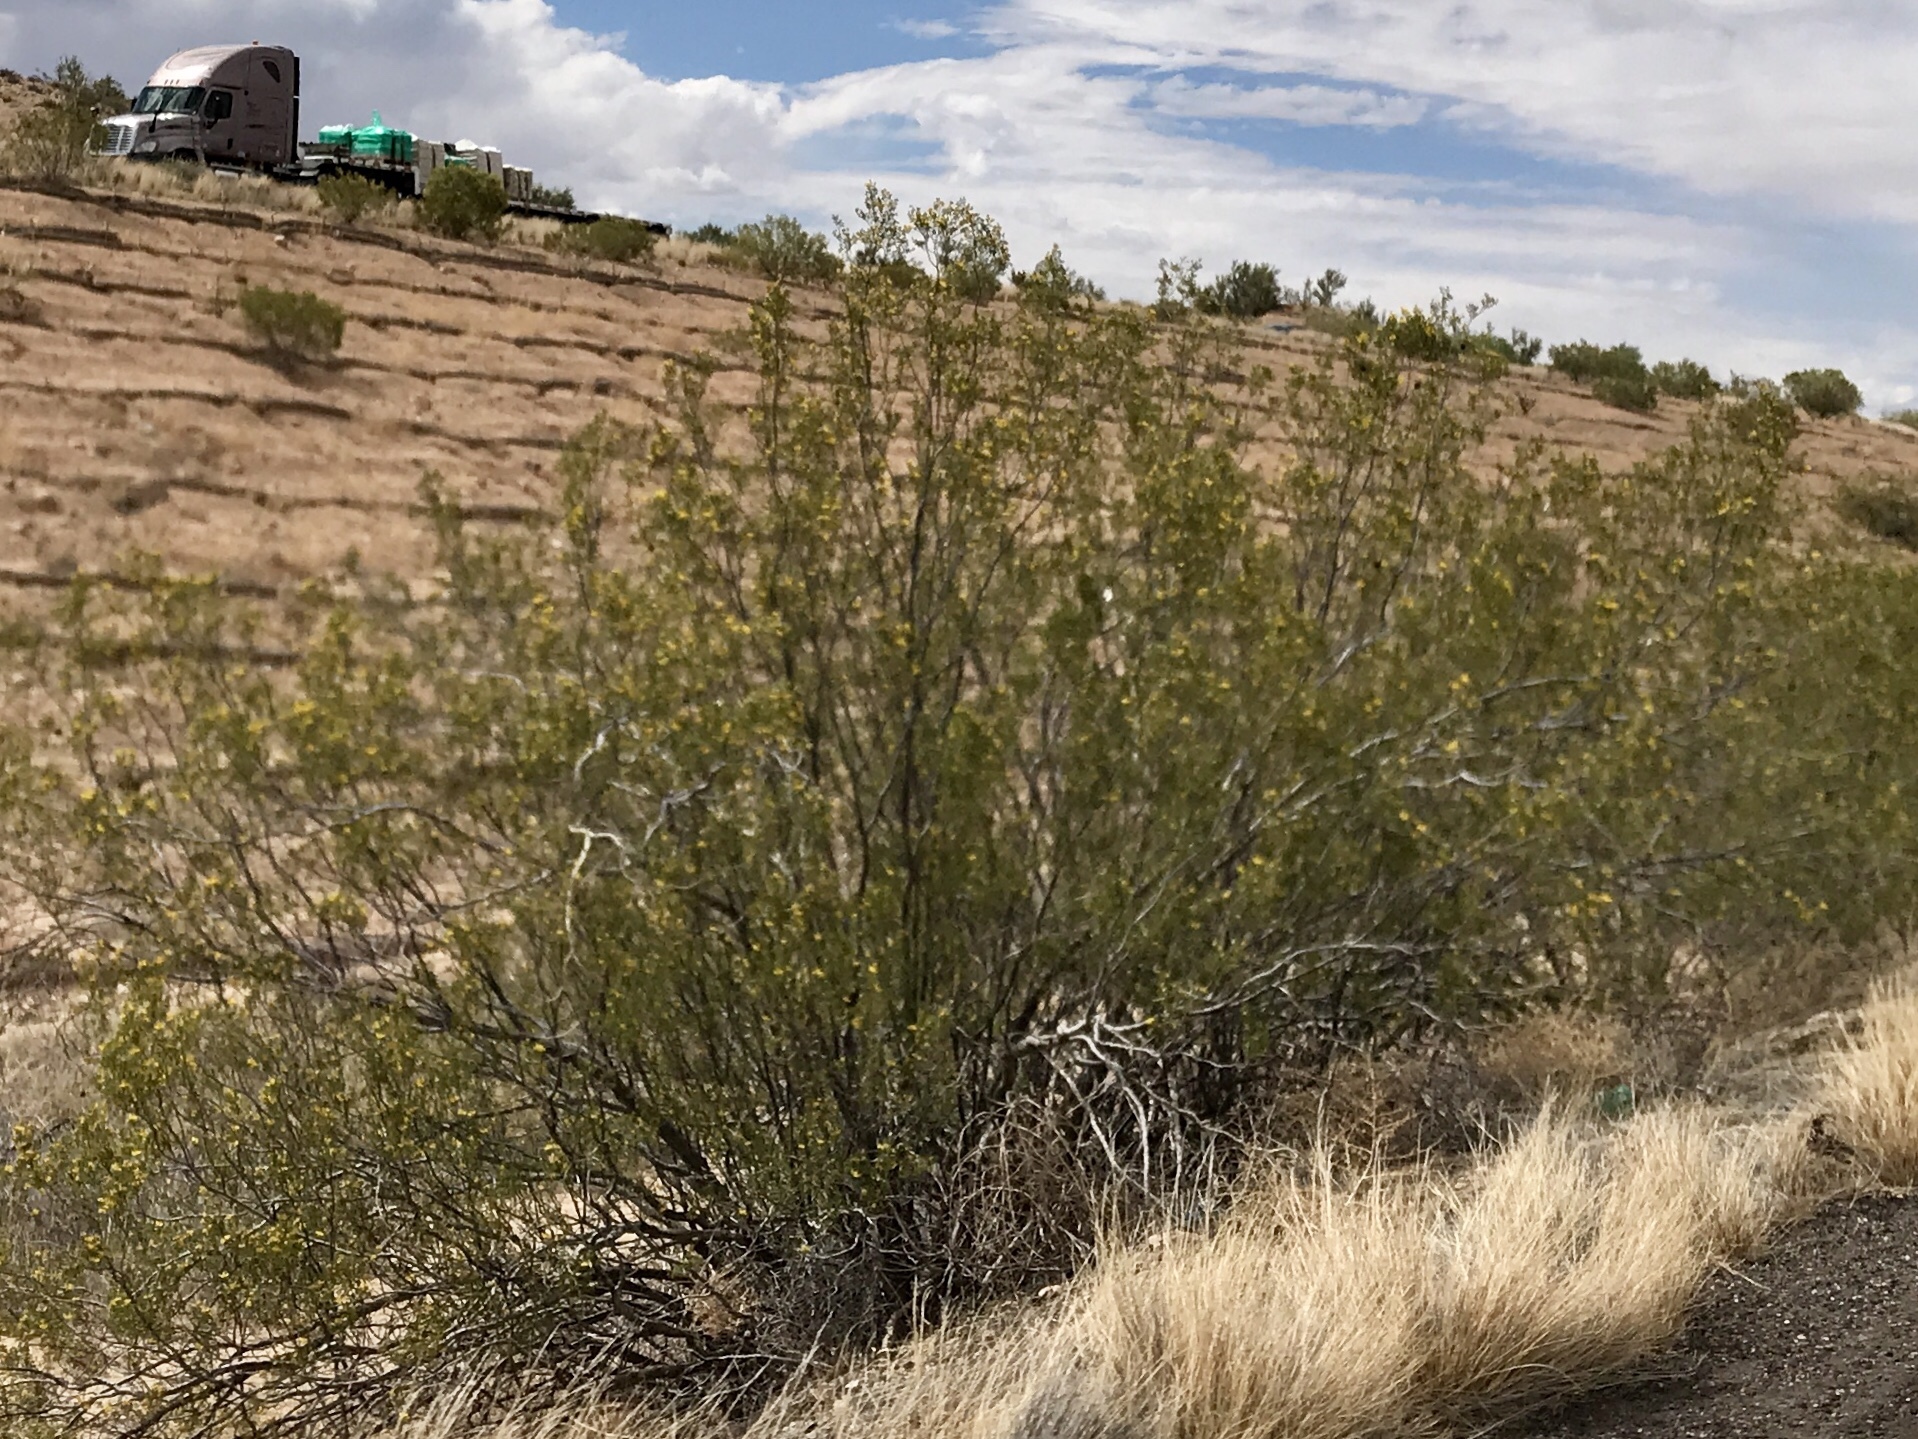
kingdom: Plantae
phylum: Tracheophyta
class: Magnoliopsida
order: Zygophyllales
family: Zygophyllaceae
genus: Larrea
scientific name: Larrea tridentata
